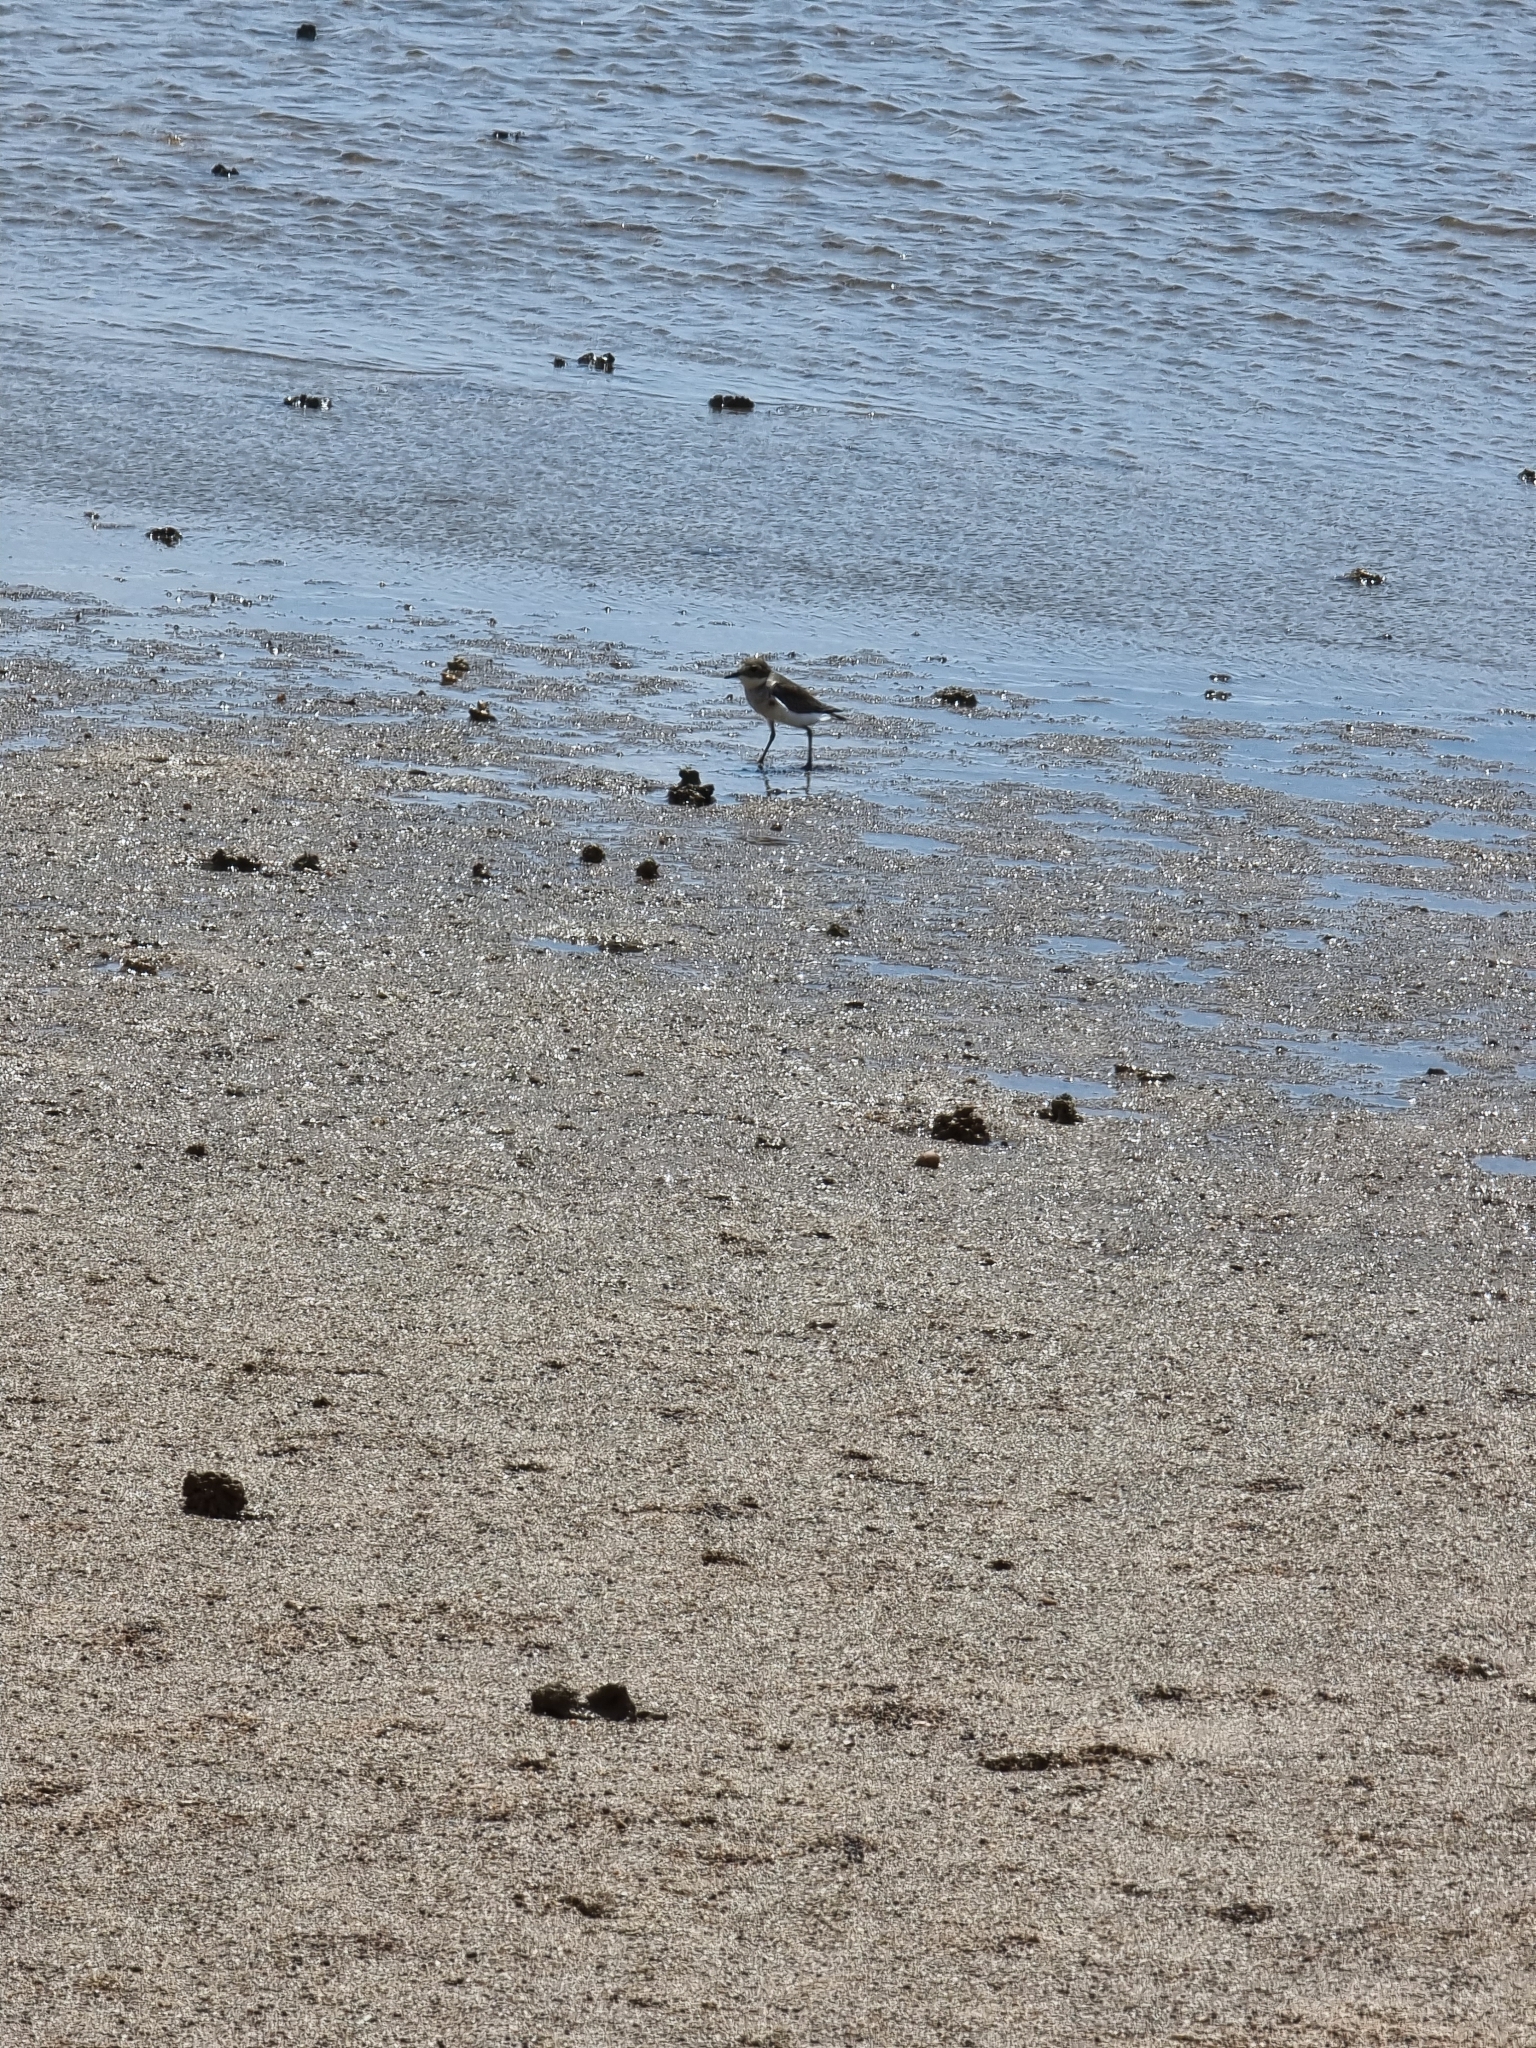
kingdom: Animalia
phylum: Chordata
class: Aves
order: Charadriiformes
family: Charadriidae
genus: Anarhynchus
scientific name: Anarhynchus
